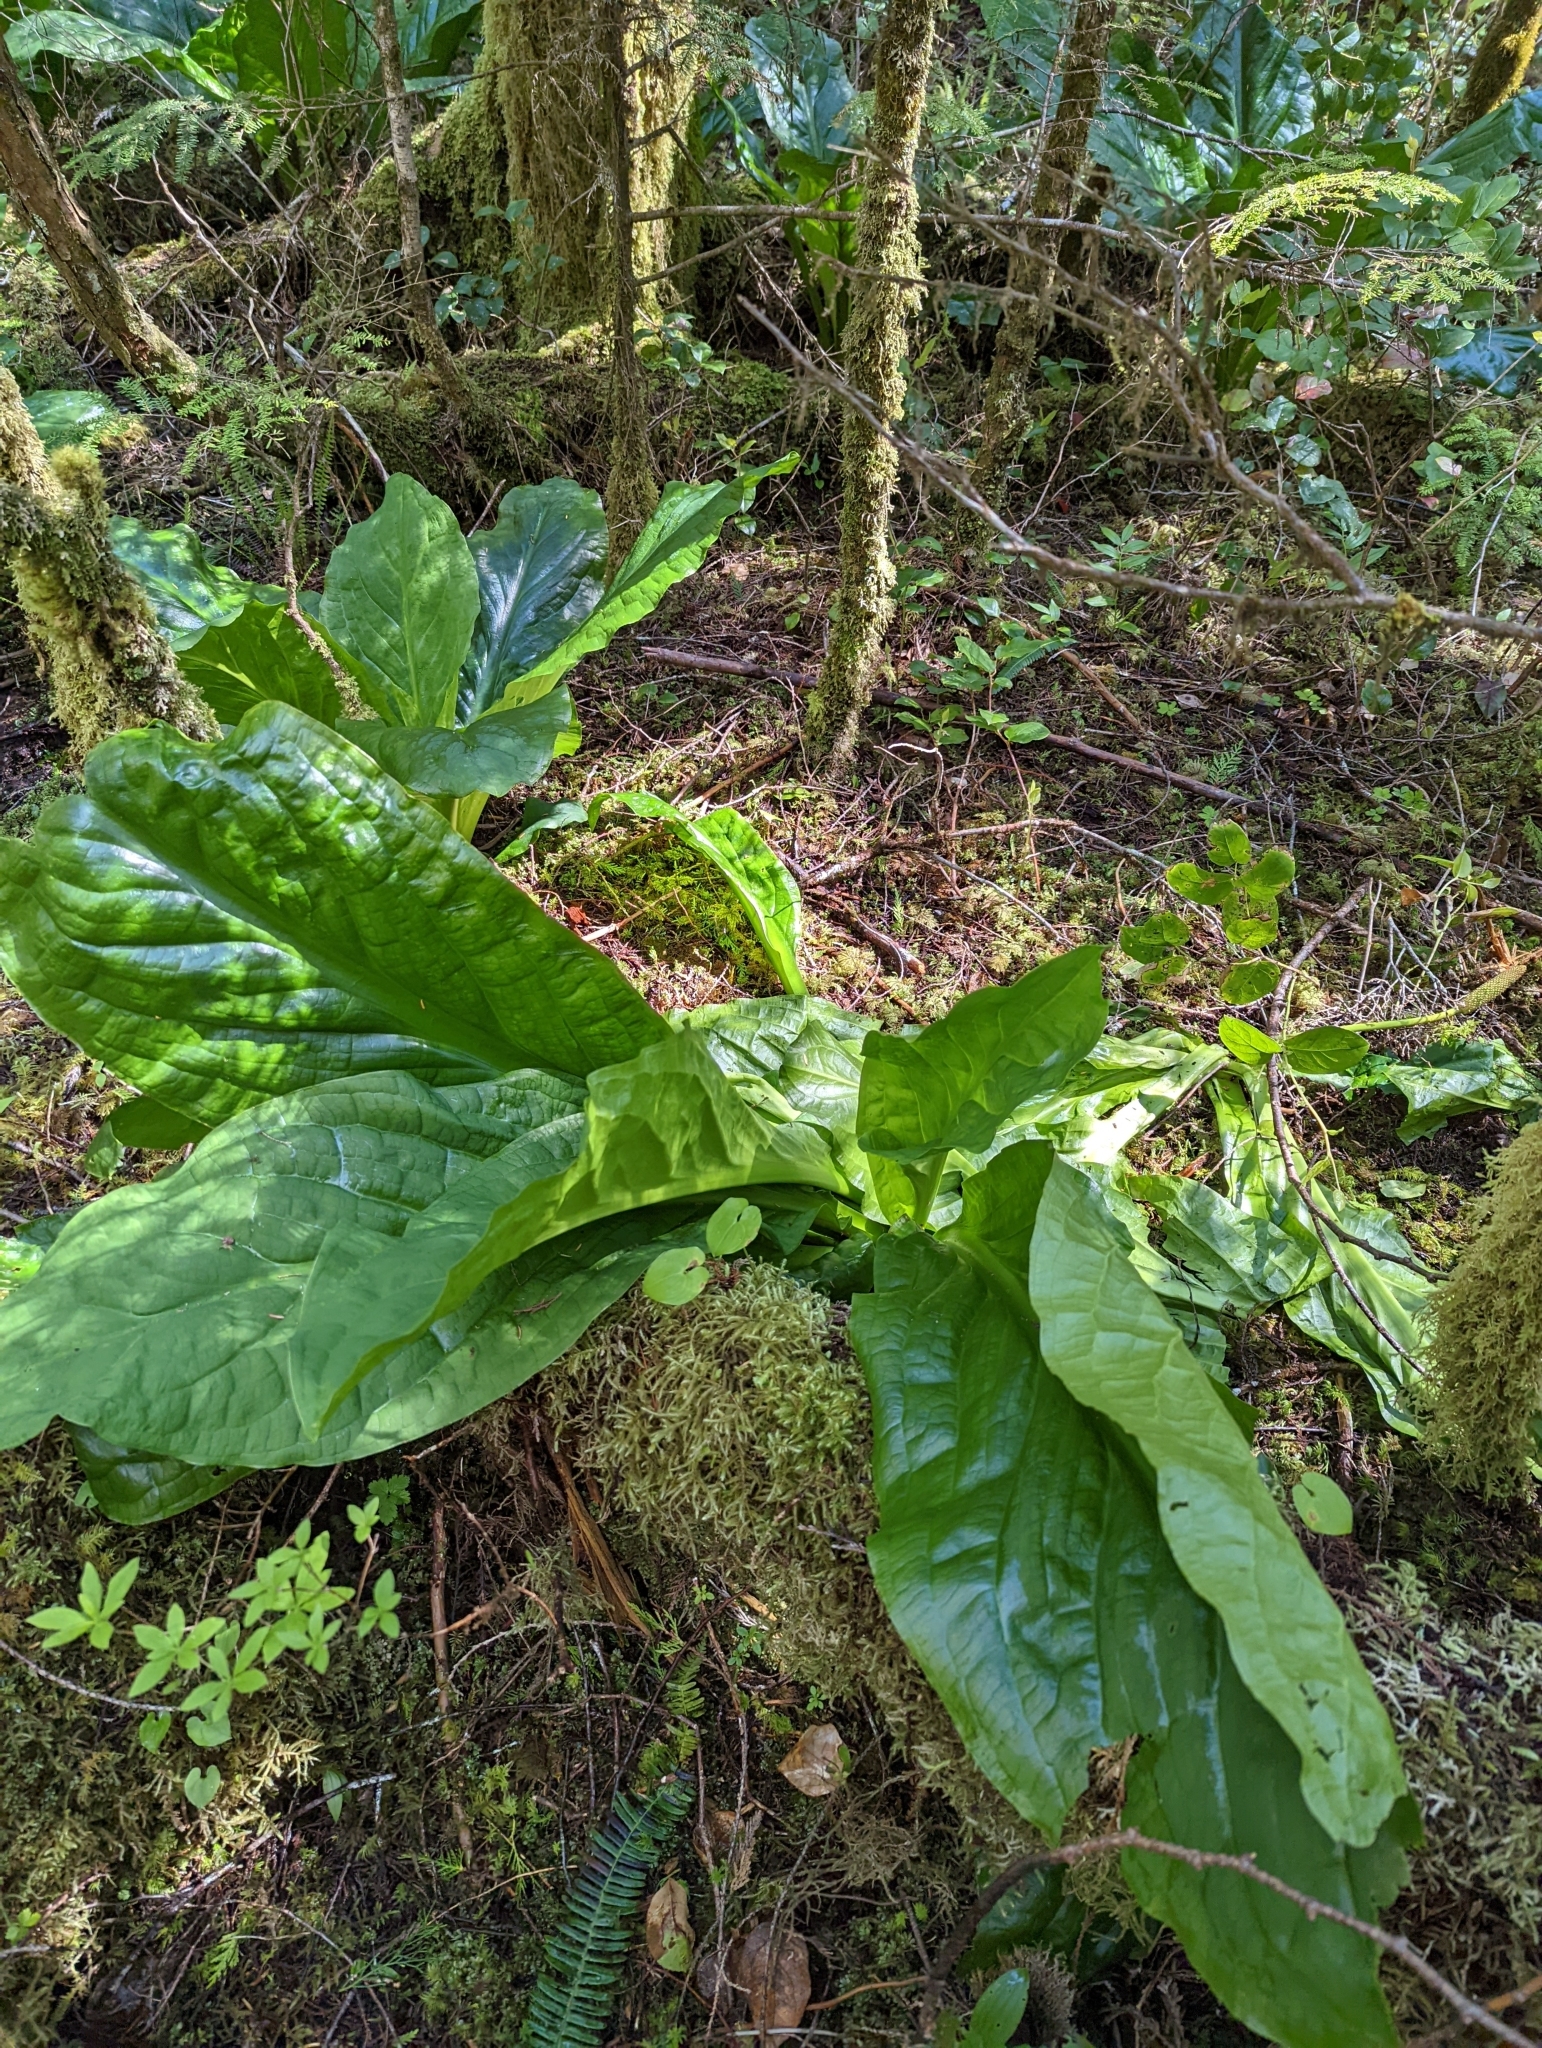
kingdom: Plantae
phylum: Tracheophyta
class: Liliopsida
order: Alismatales
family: Araceae
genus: Lysichiton
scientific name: Lysichiton americanus
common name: American skunk cabbage
